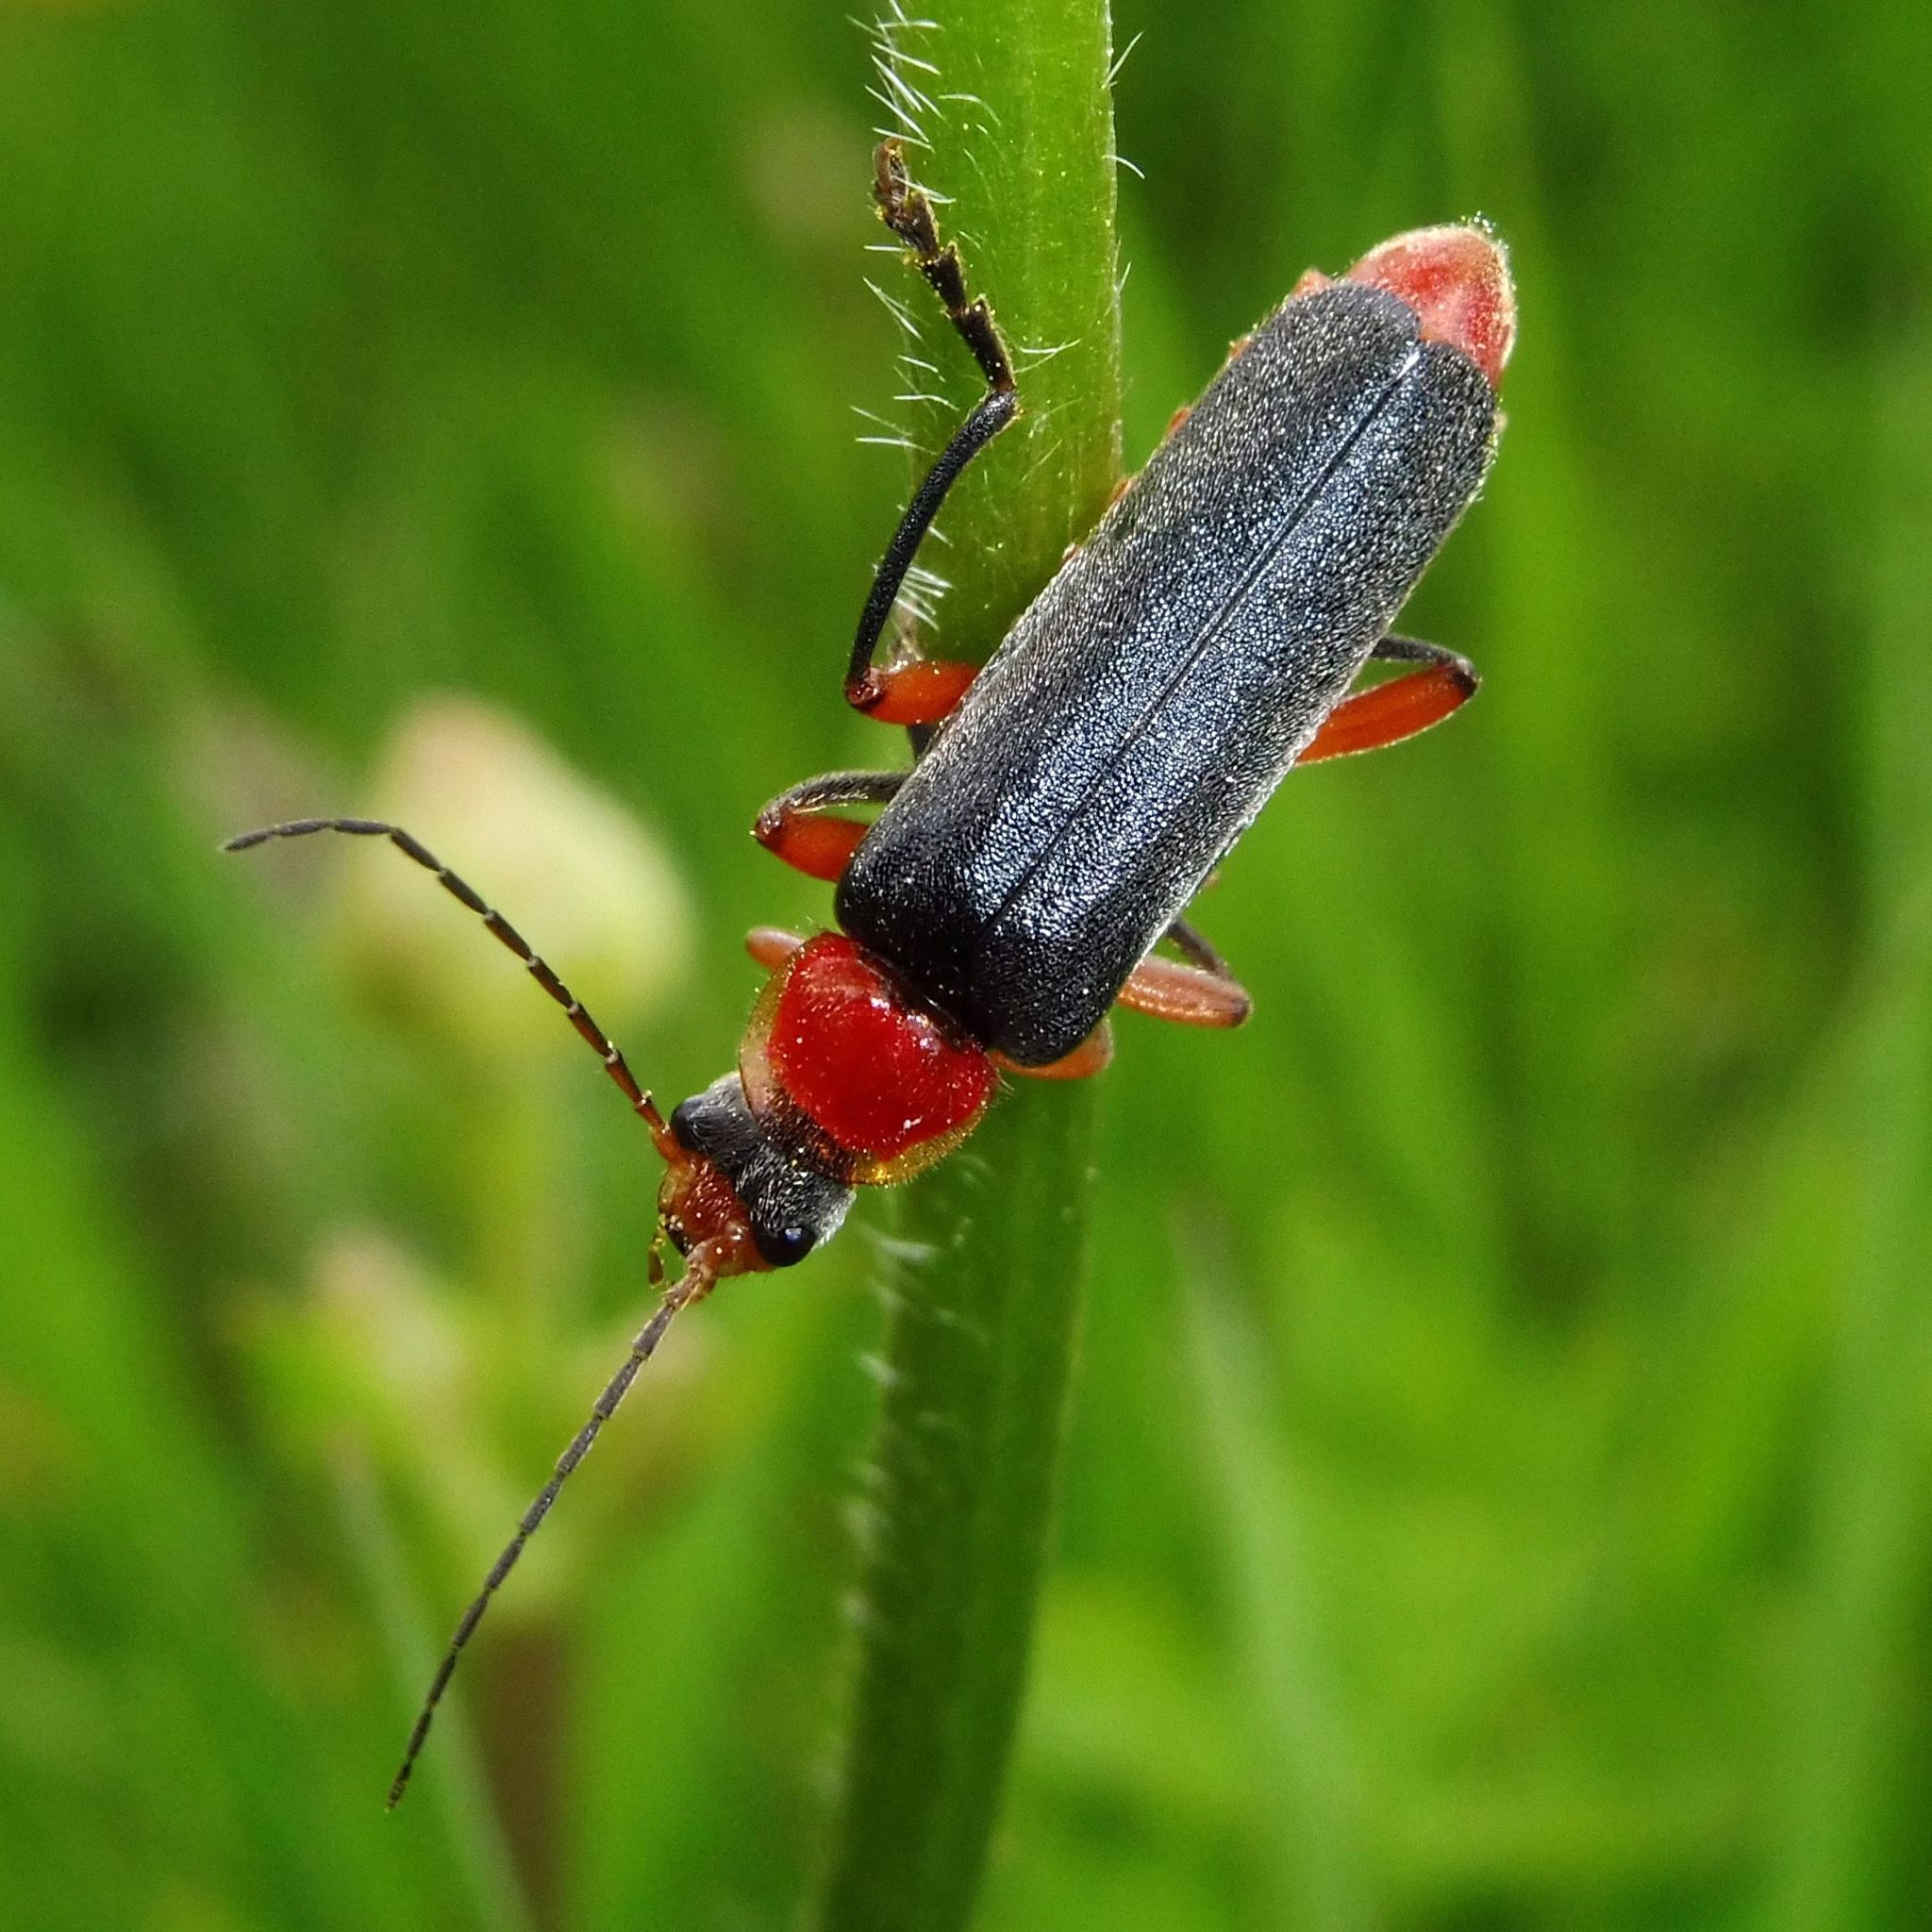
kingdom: Animalia
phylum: Arthropoda
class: Insecta
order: Coleoptera
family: Cantharidae
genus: Cantharis
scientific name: Cantharis pellucida
